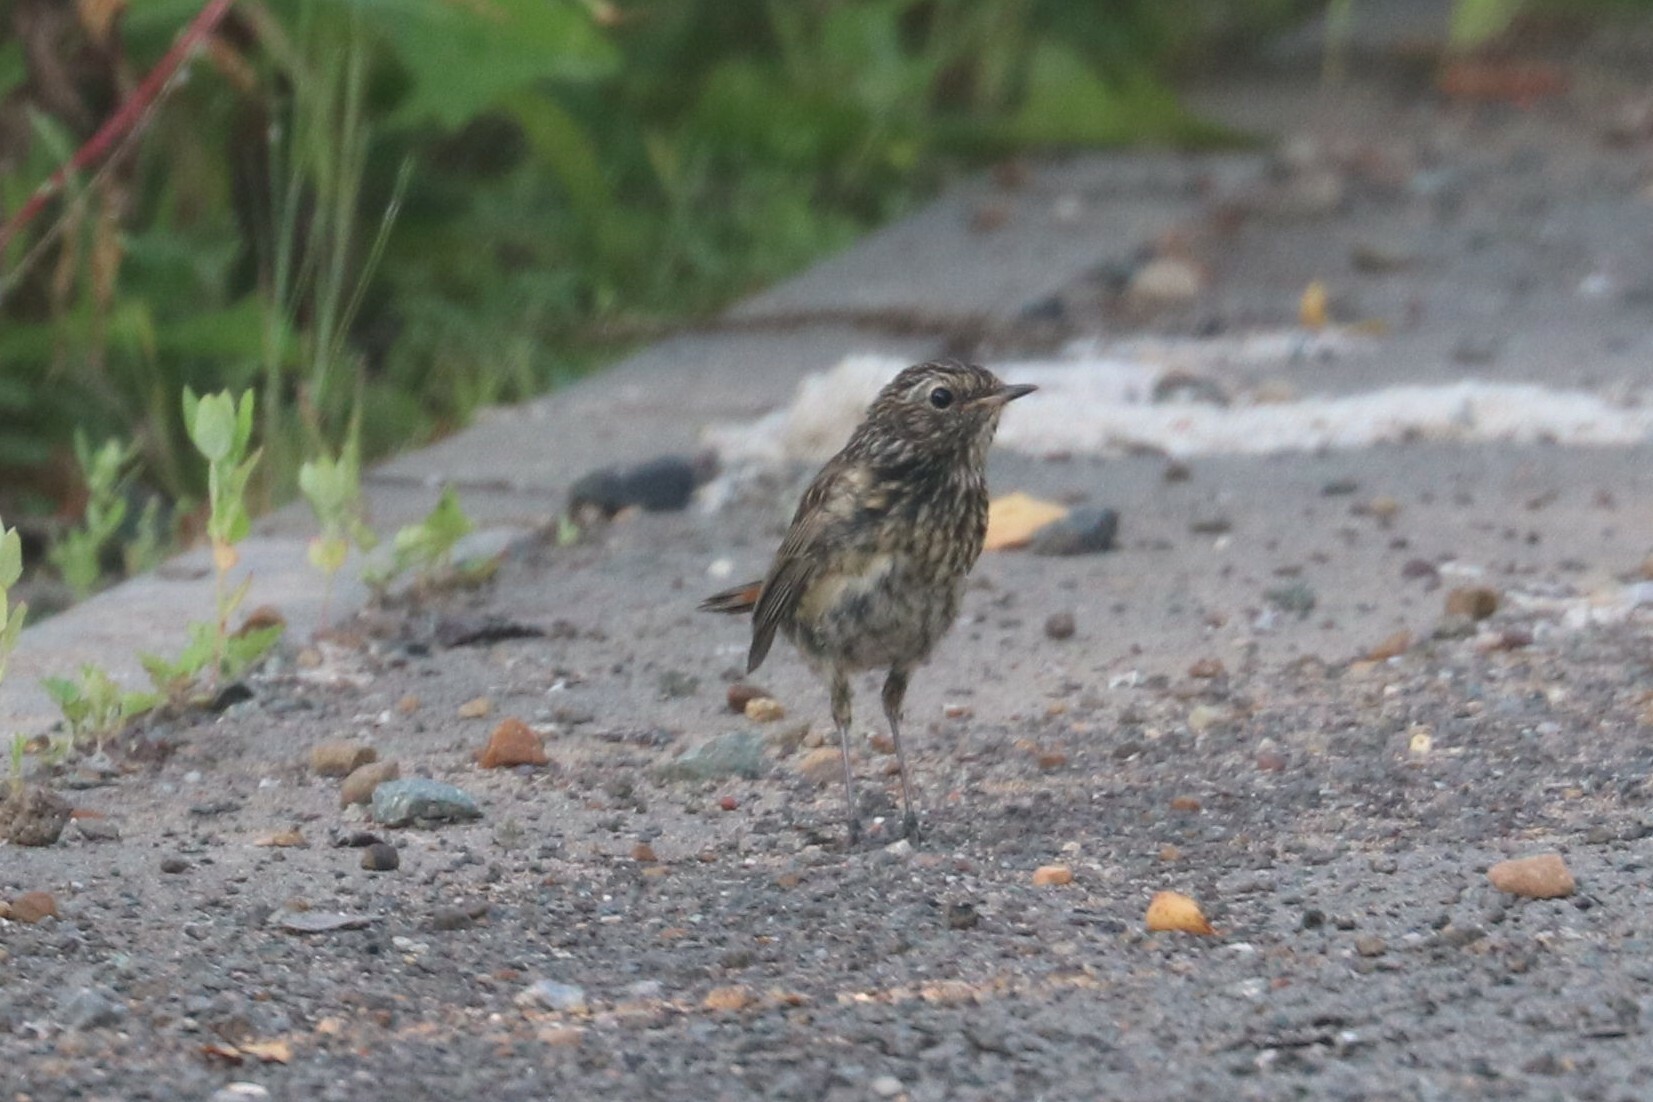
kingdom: Animalia
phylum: Chordata
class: Aves
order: Passeriformes
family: Muscicapidae
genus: Luscinia
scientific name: Luscinia svecica
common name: Bluethroat
